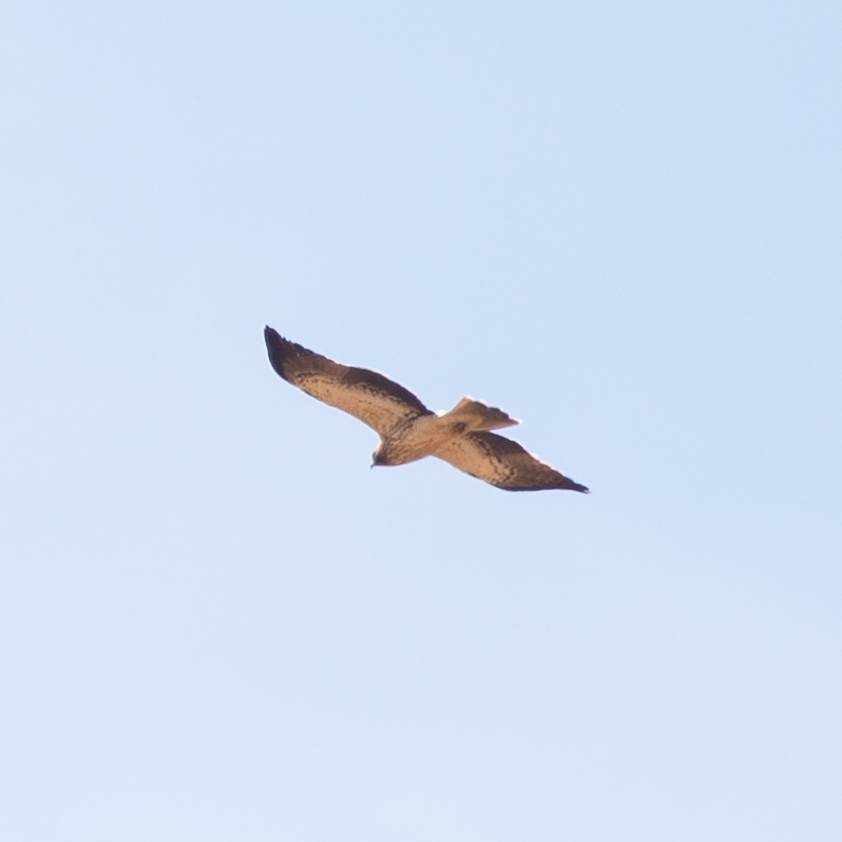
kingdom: Animalia
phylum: Chordata
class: Aves
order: Accipitriformes
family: Accipitridae
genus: Hieraaetus
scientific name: Hieraaetus pennatus
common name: Booted eagle
